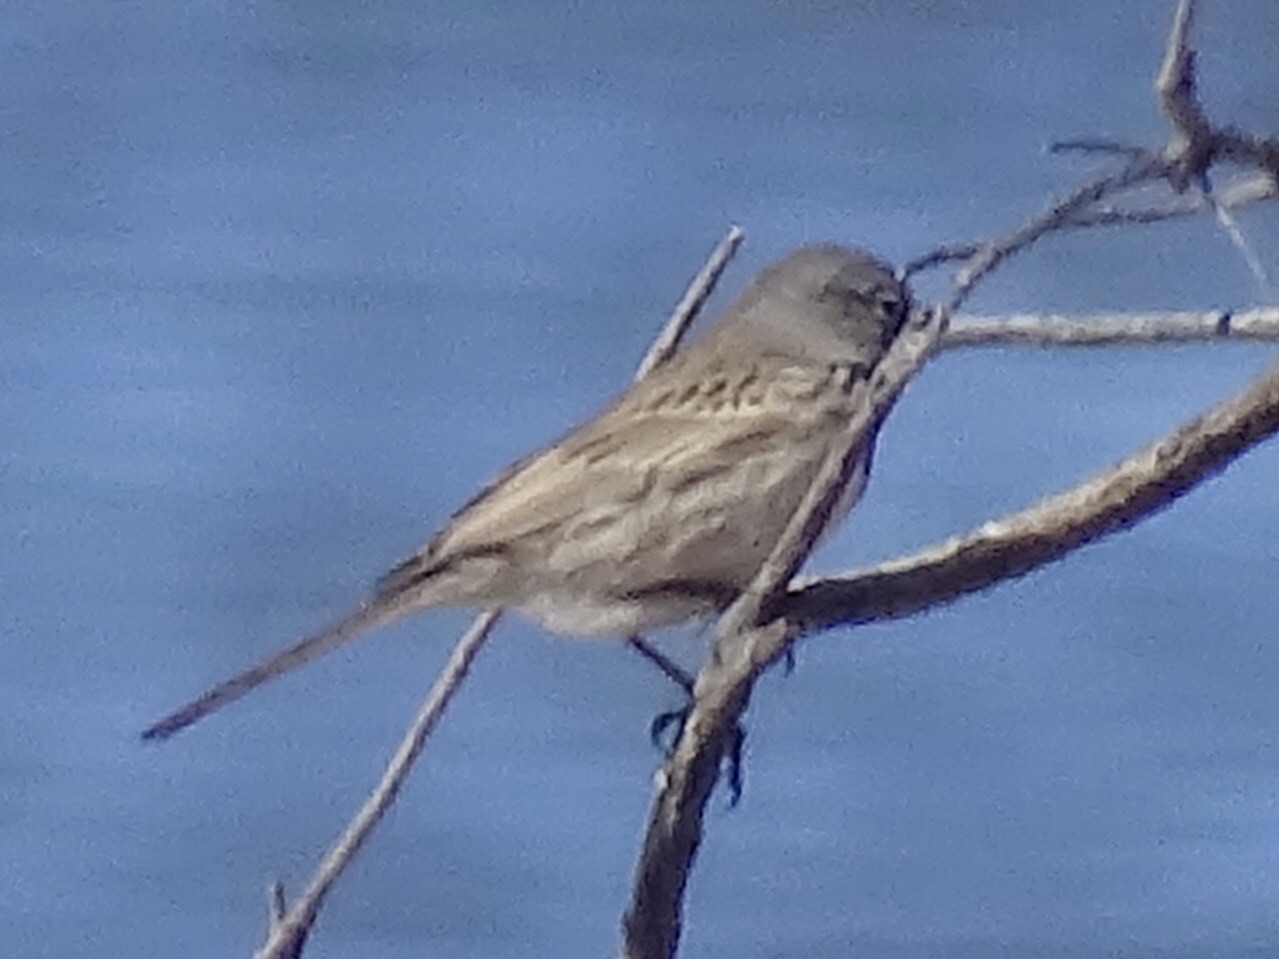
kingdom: Animalia
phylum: Chordata
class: Aves
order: Passeriformes
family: Passerellidae
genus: Artemisiospiza
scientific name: Artemisiospiza nevadensis
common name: Sagebrush sparrow
